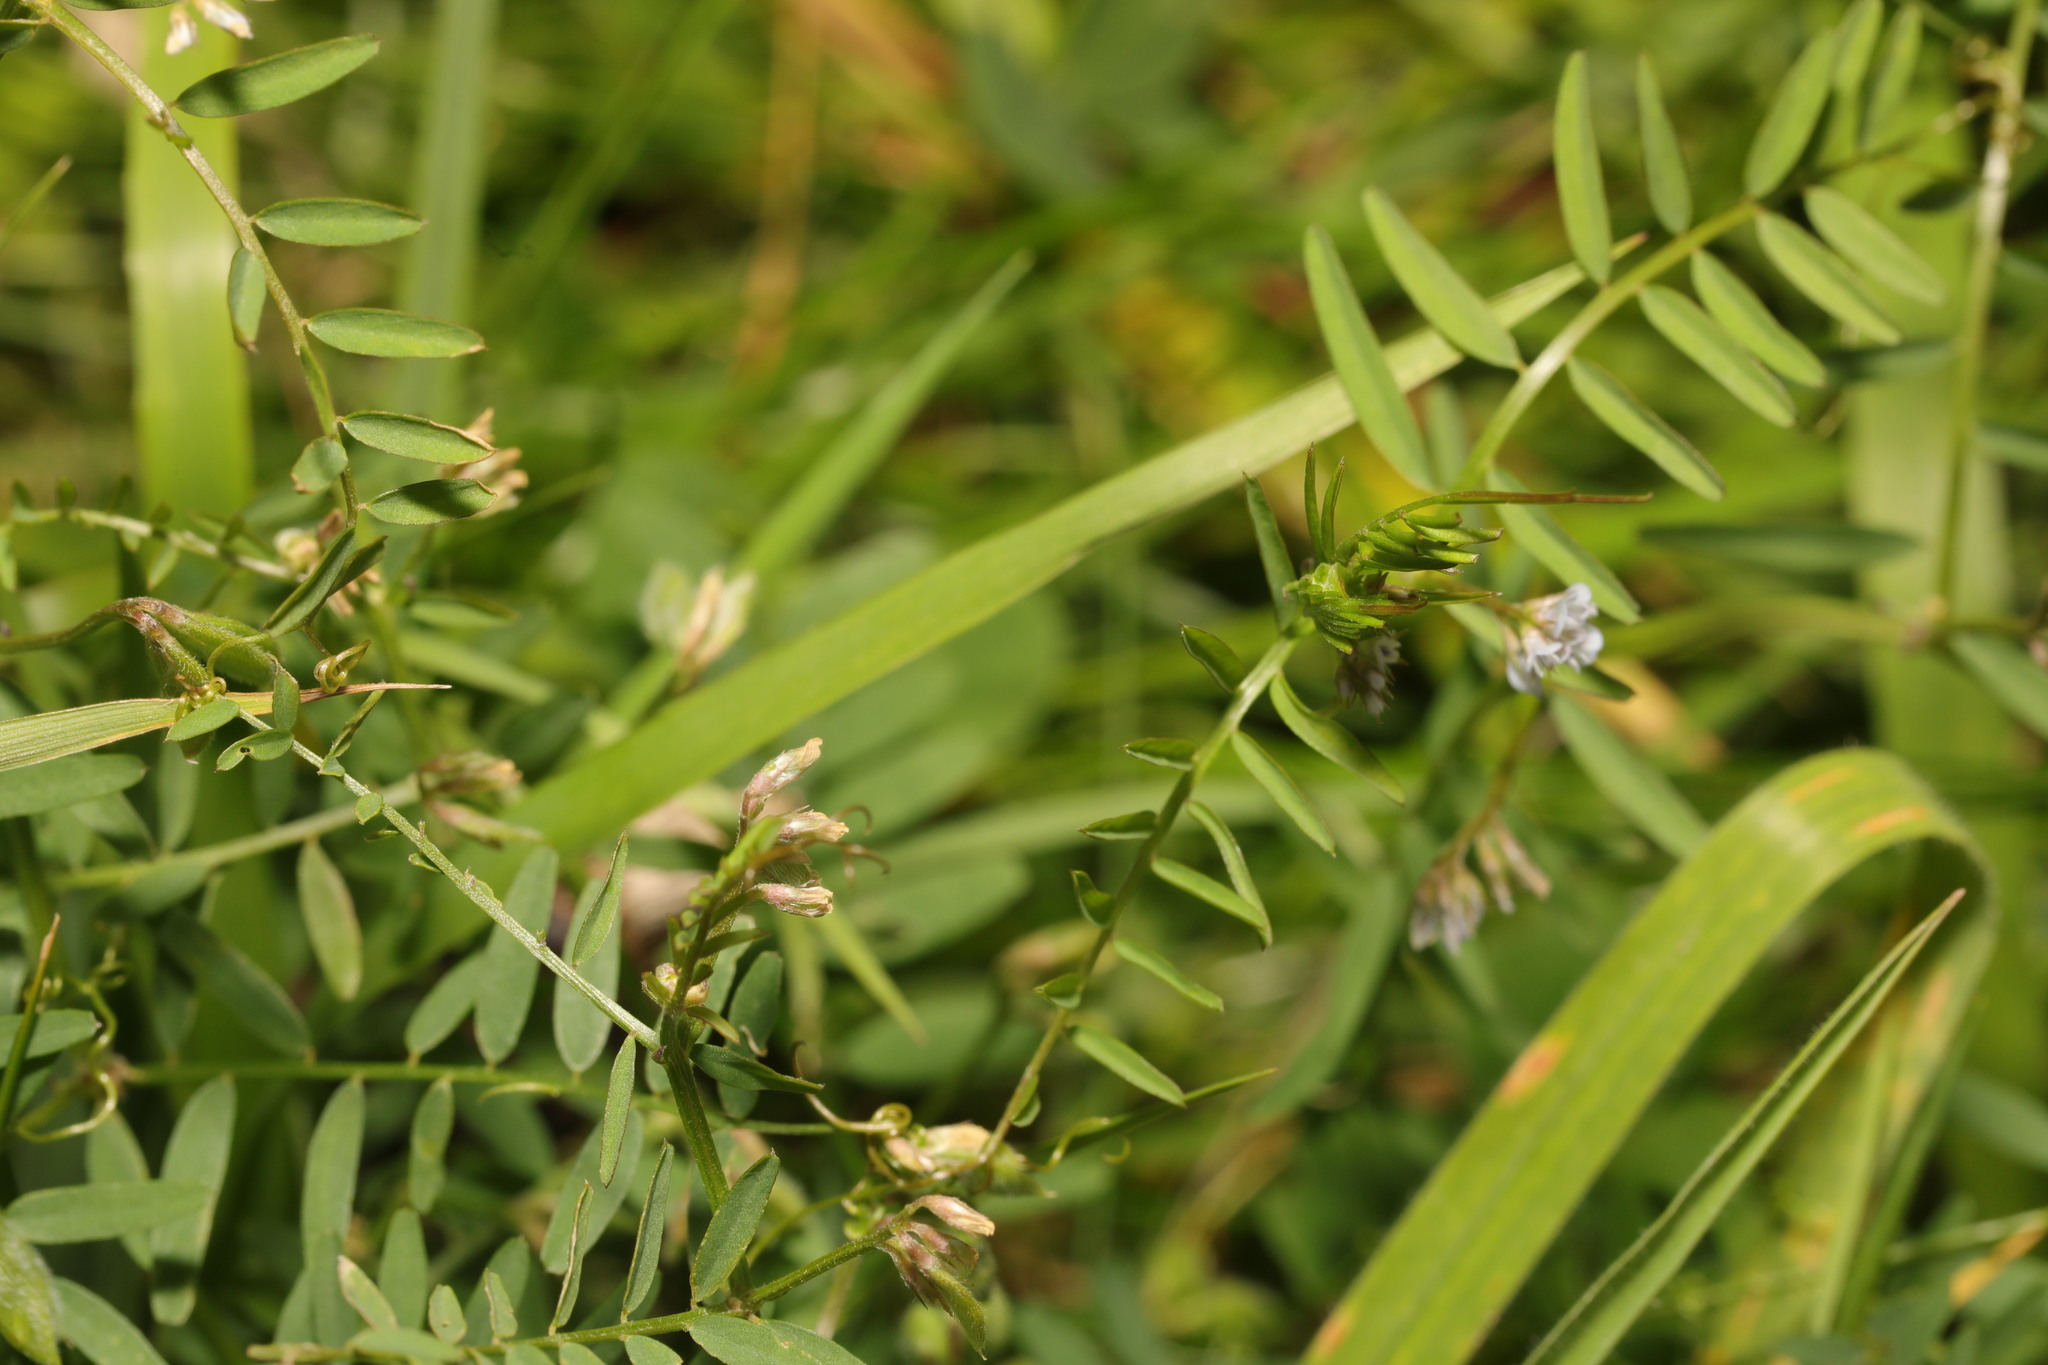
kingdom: Plantae
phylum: Tracheophyta
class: Magnoliopsida
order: Fabales
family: Fabaceae
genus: Vicia
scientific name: Vicia hirsuta
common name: Tiny vetch
